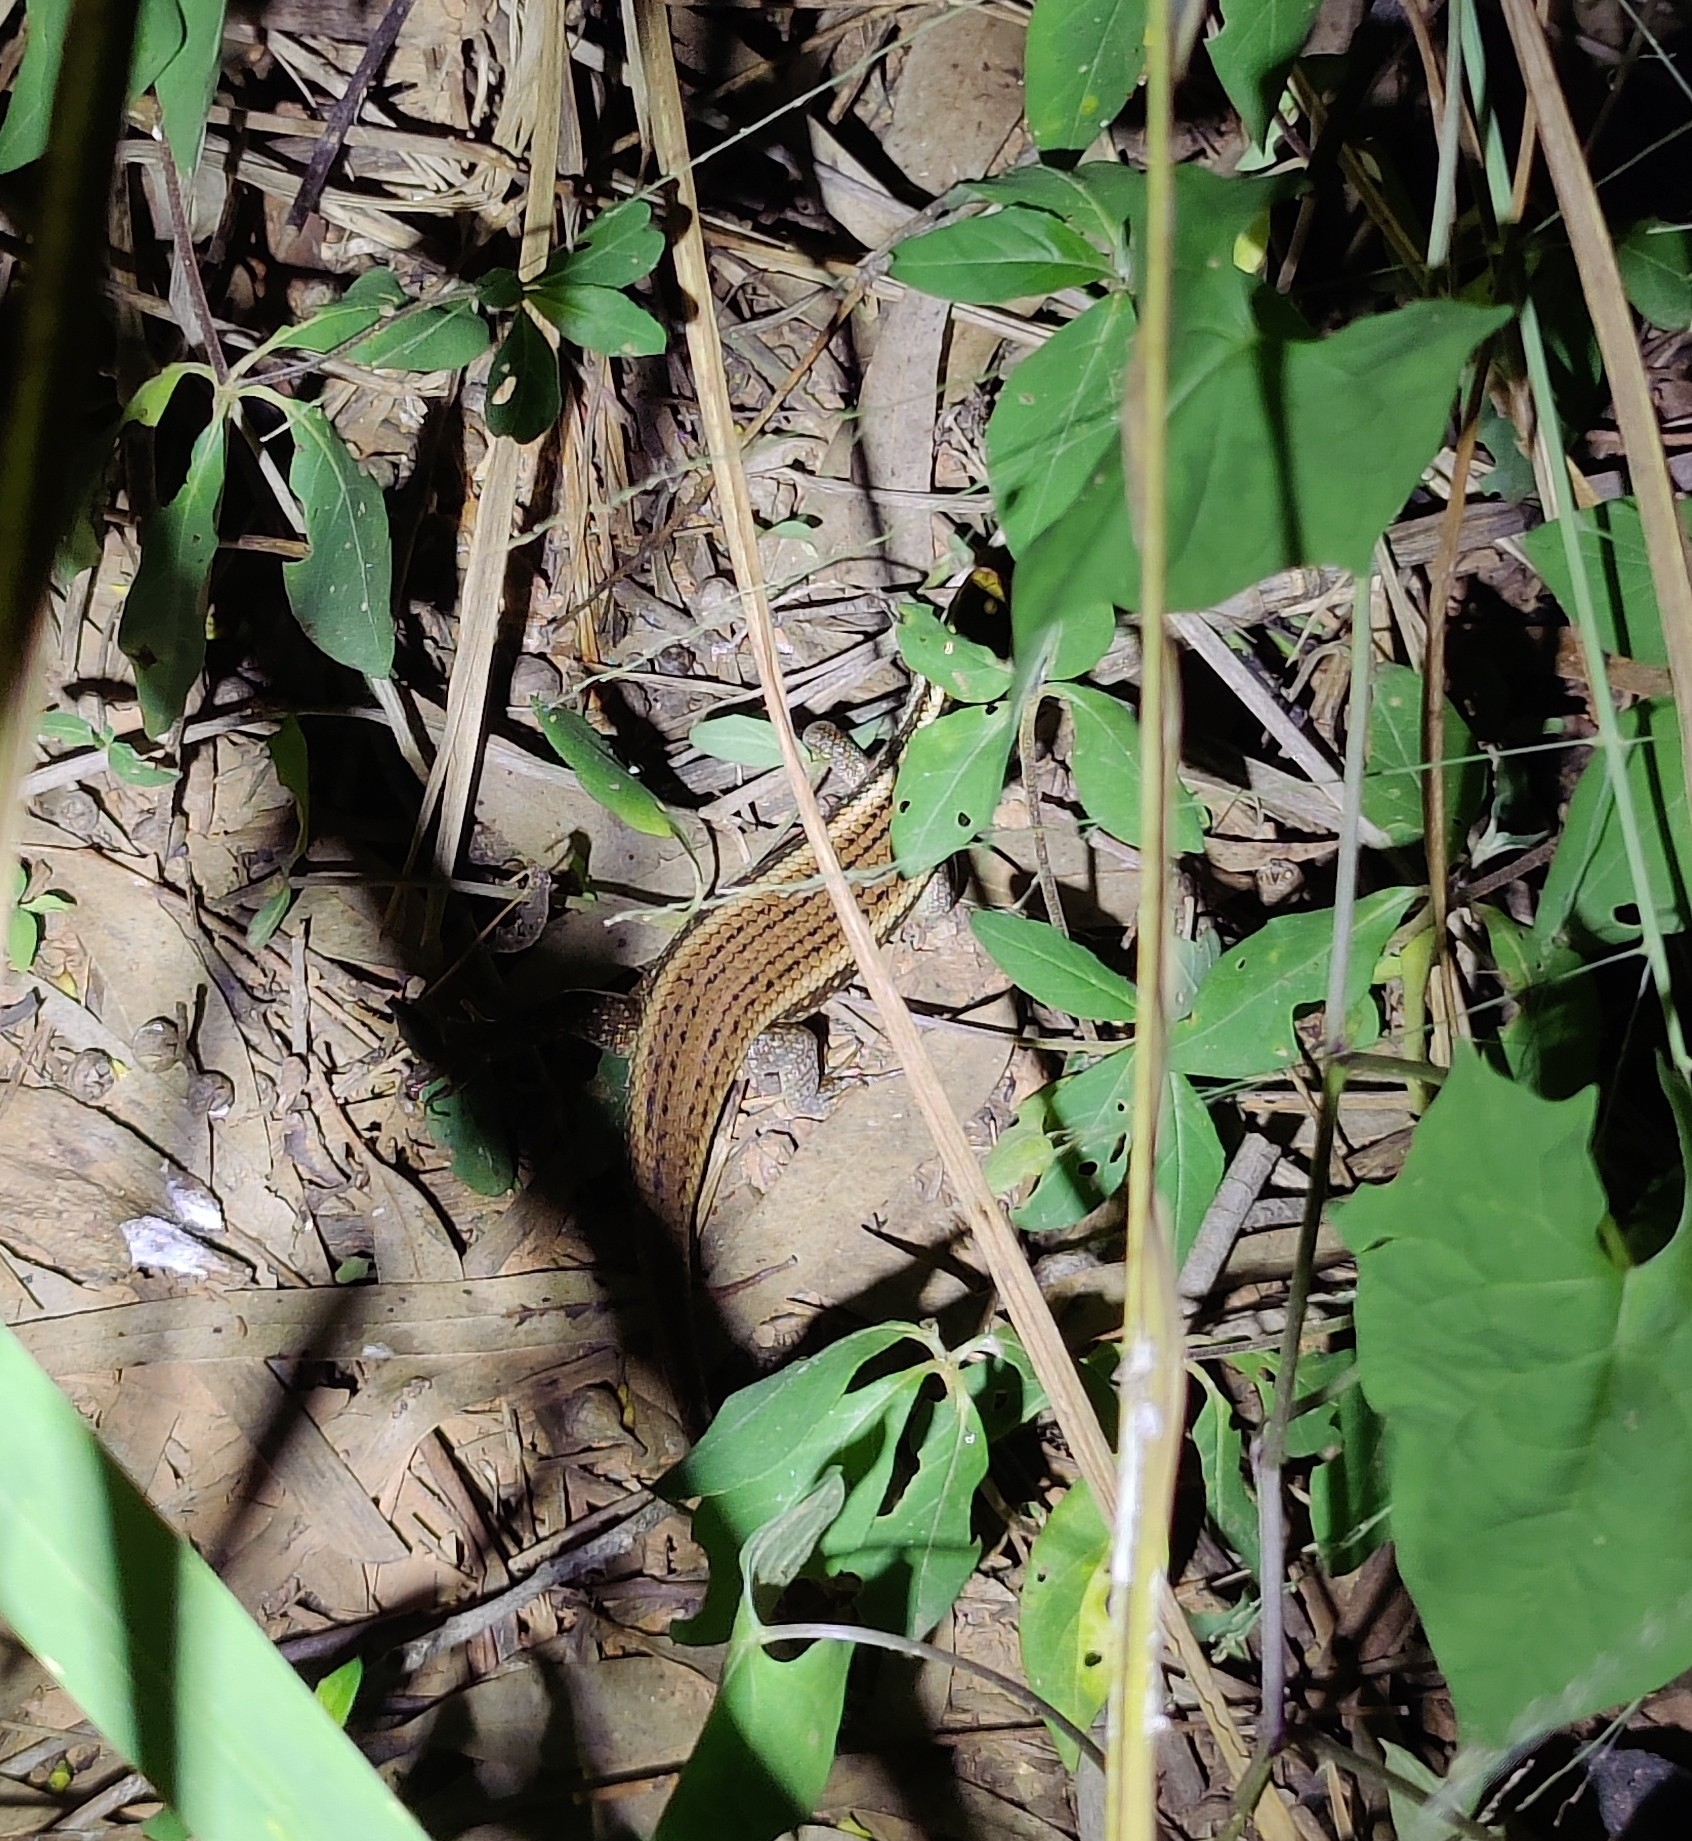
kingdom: Animalia
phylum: Chordata
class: Squamata
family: Scincidae
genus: Eutropis
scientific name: Eutropis carinata
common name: Keeled indian mabuya
